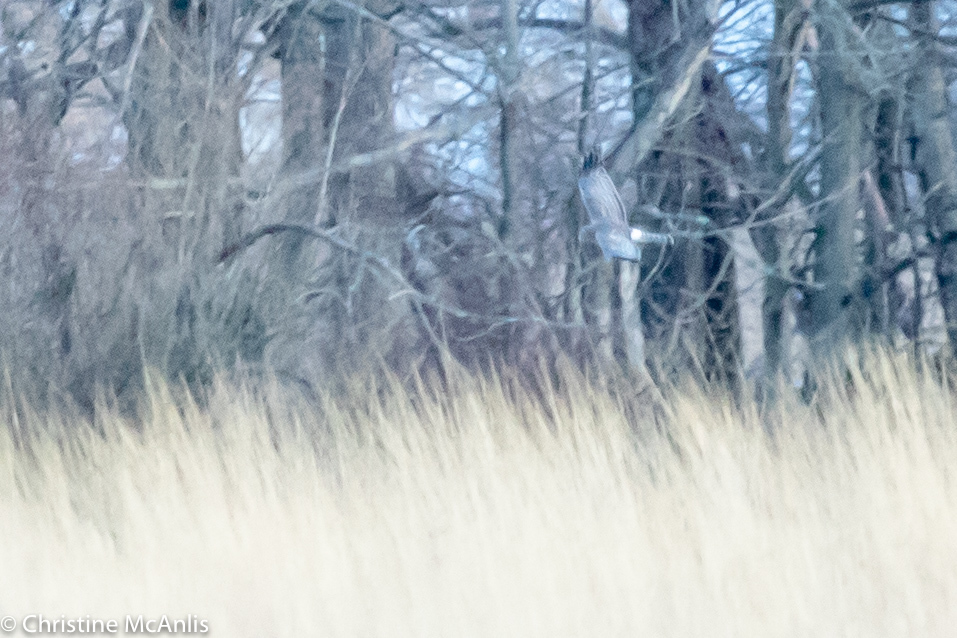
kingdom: Animalia
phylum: Chordata
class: Aves
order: Accipitriformes
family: Accipitridae
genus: Circus
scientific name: Circus cyaneus
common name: Hen harrier
